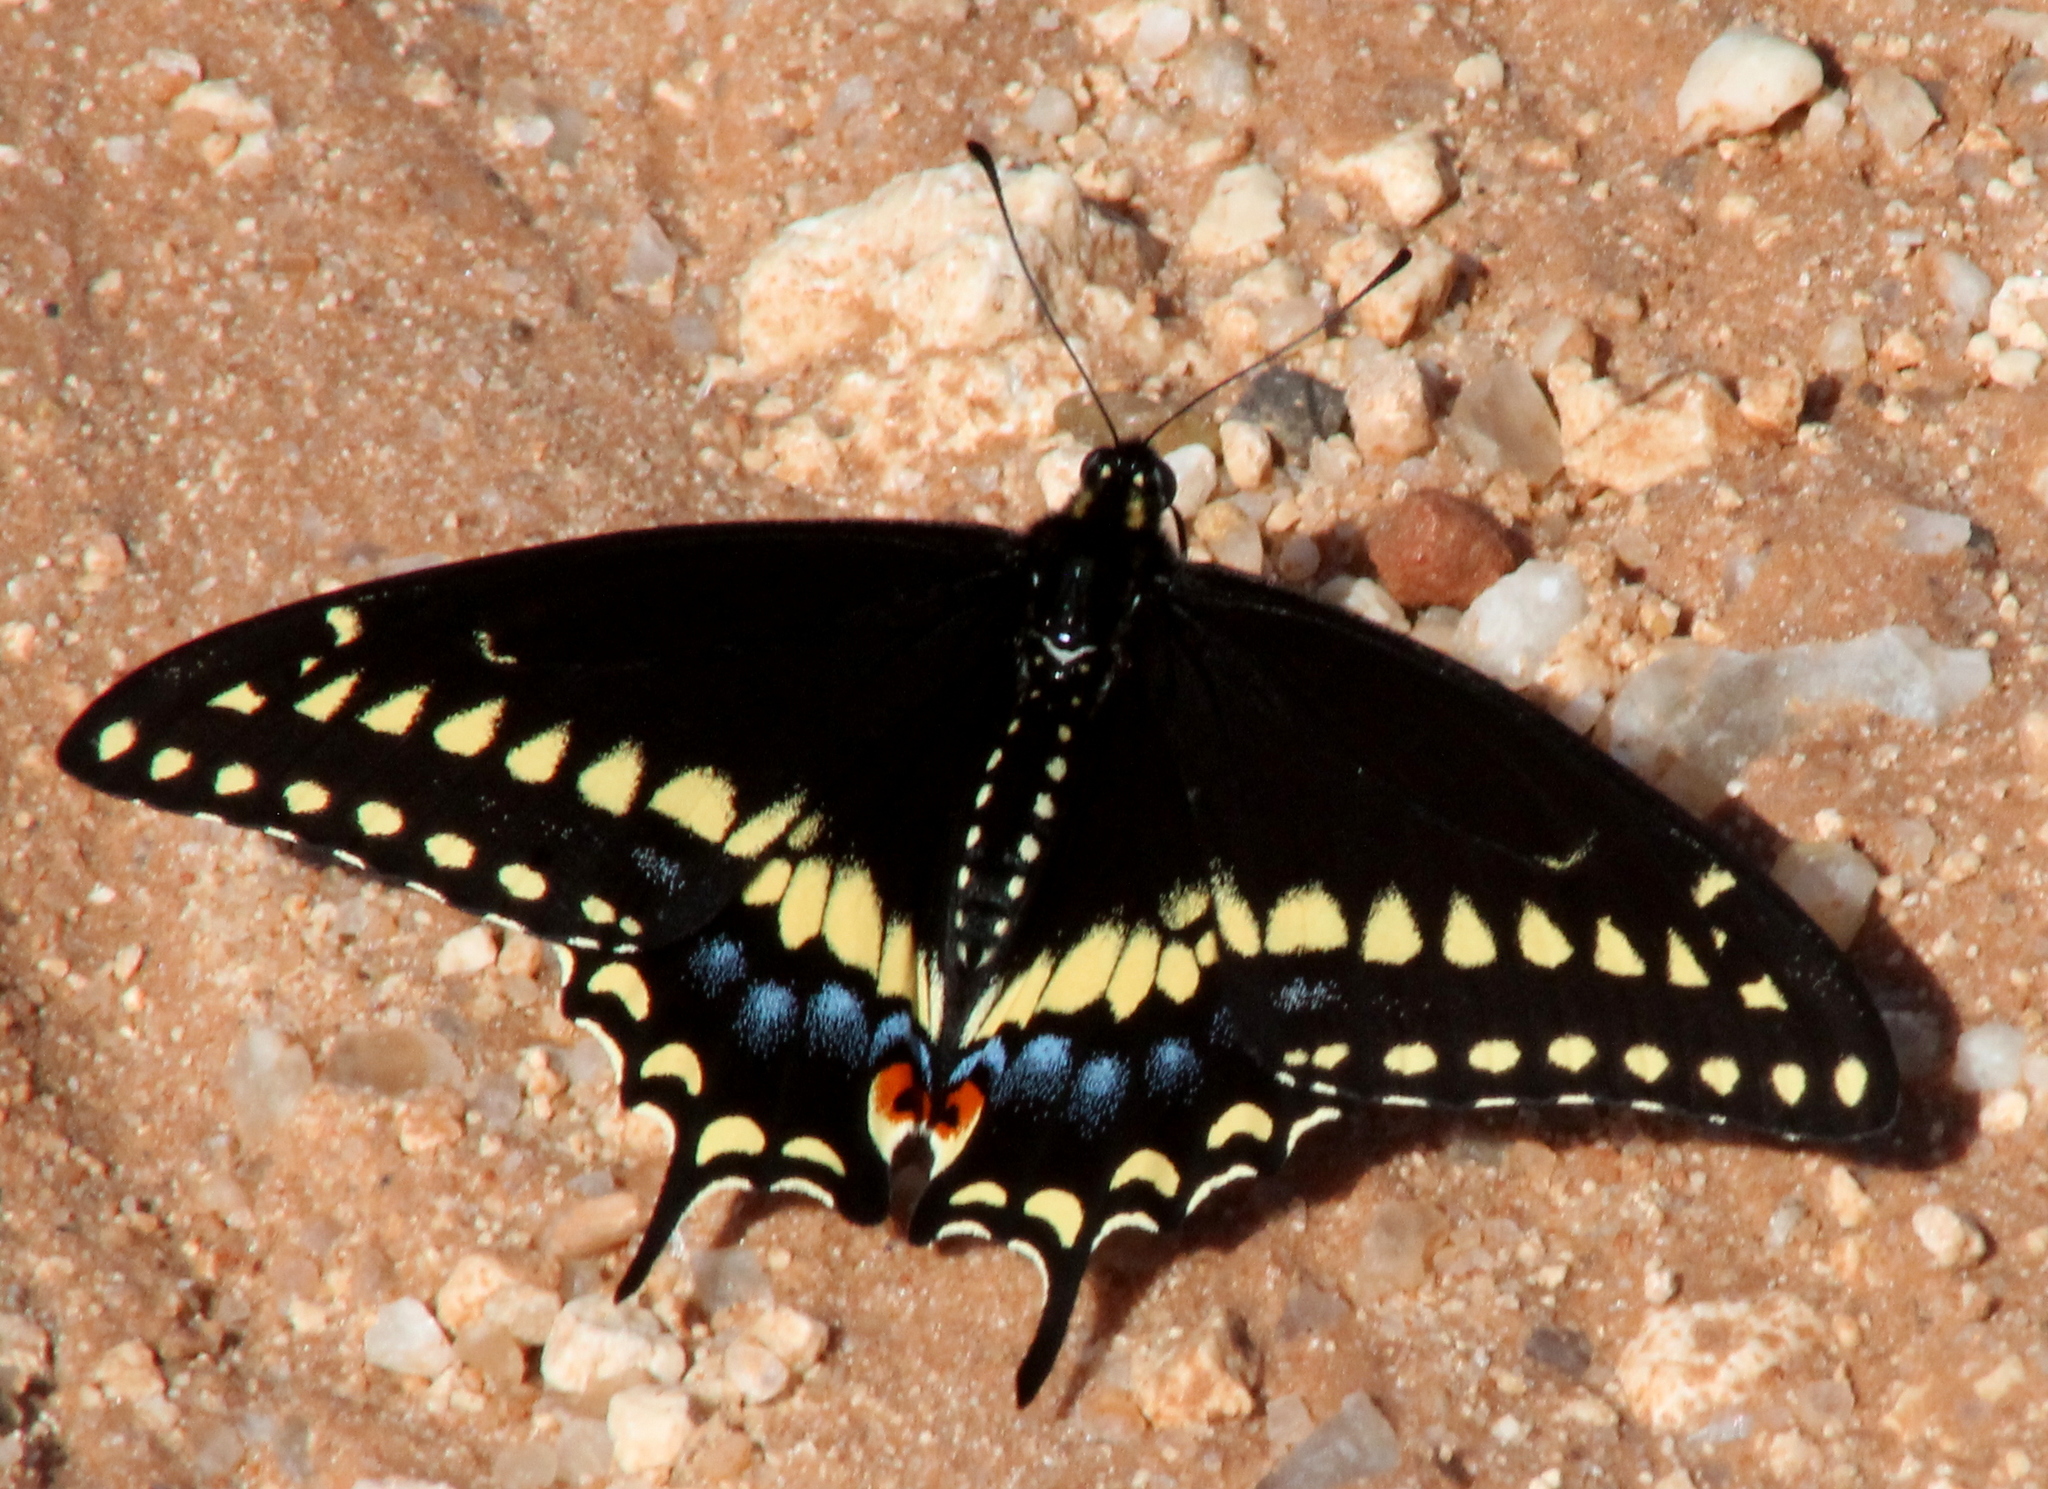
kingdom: Animalia
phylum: Arthropoda
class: Insecta
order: Lepidoptera
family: Papilionidae
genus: Papilio
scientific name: Papilio polyxenes
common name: Black swallowtail
